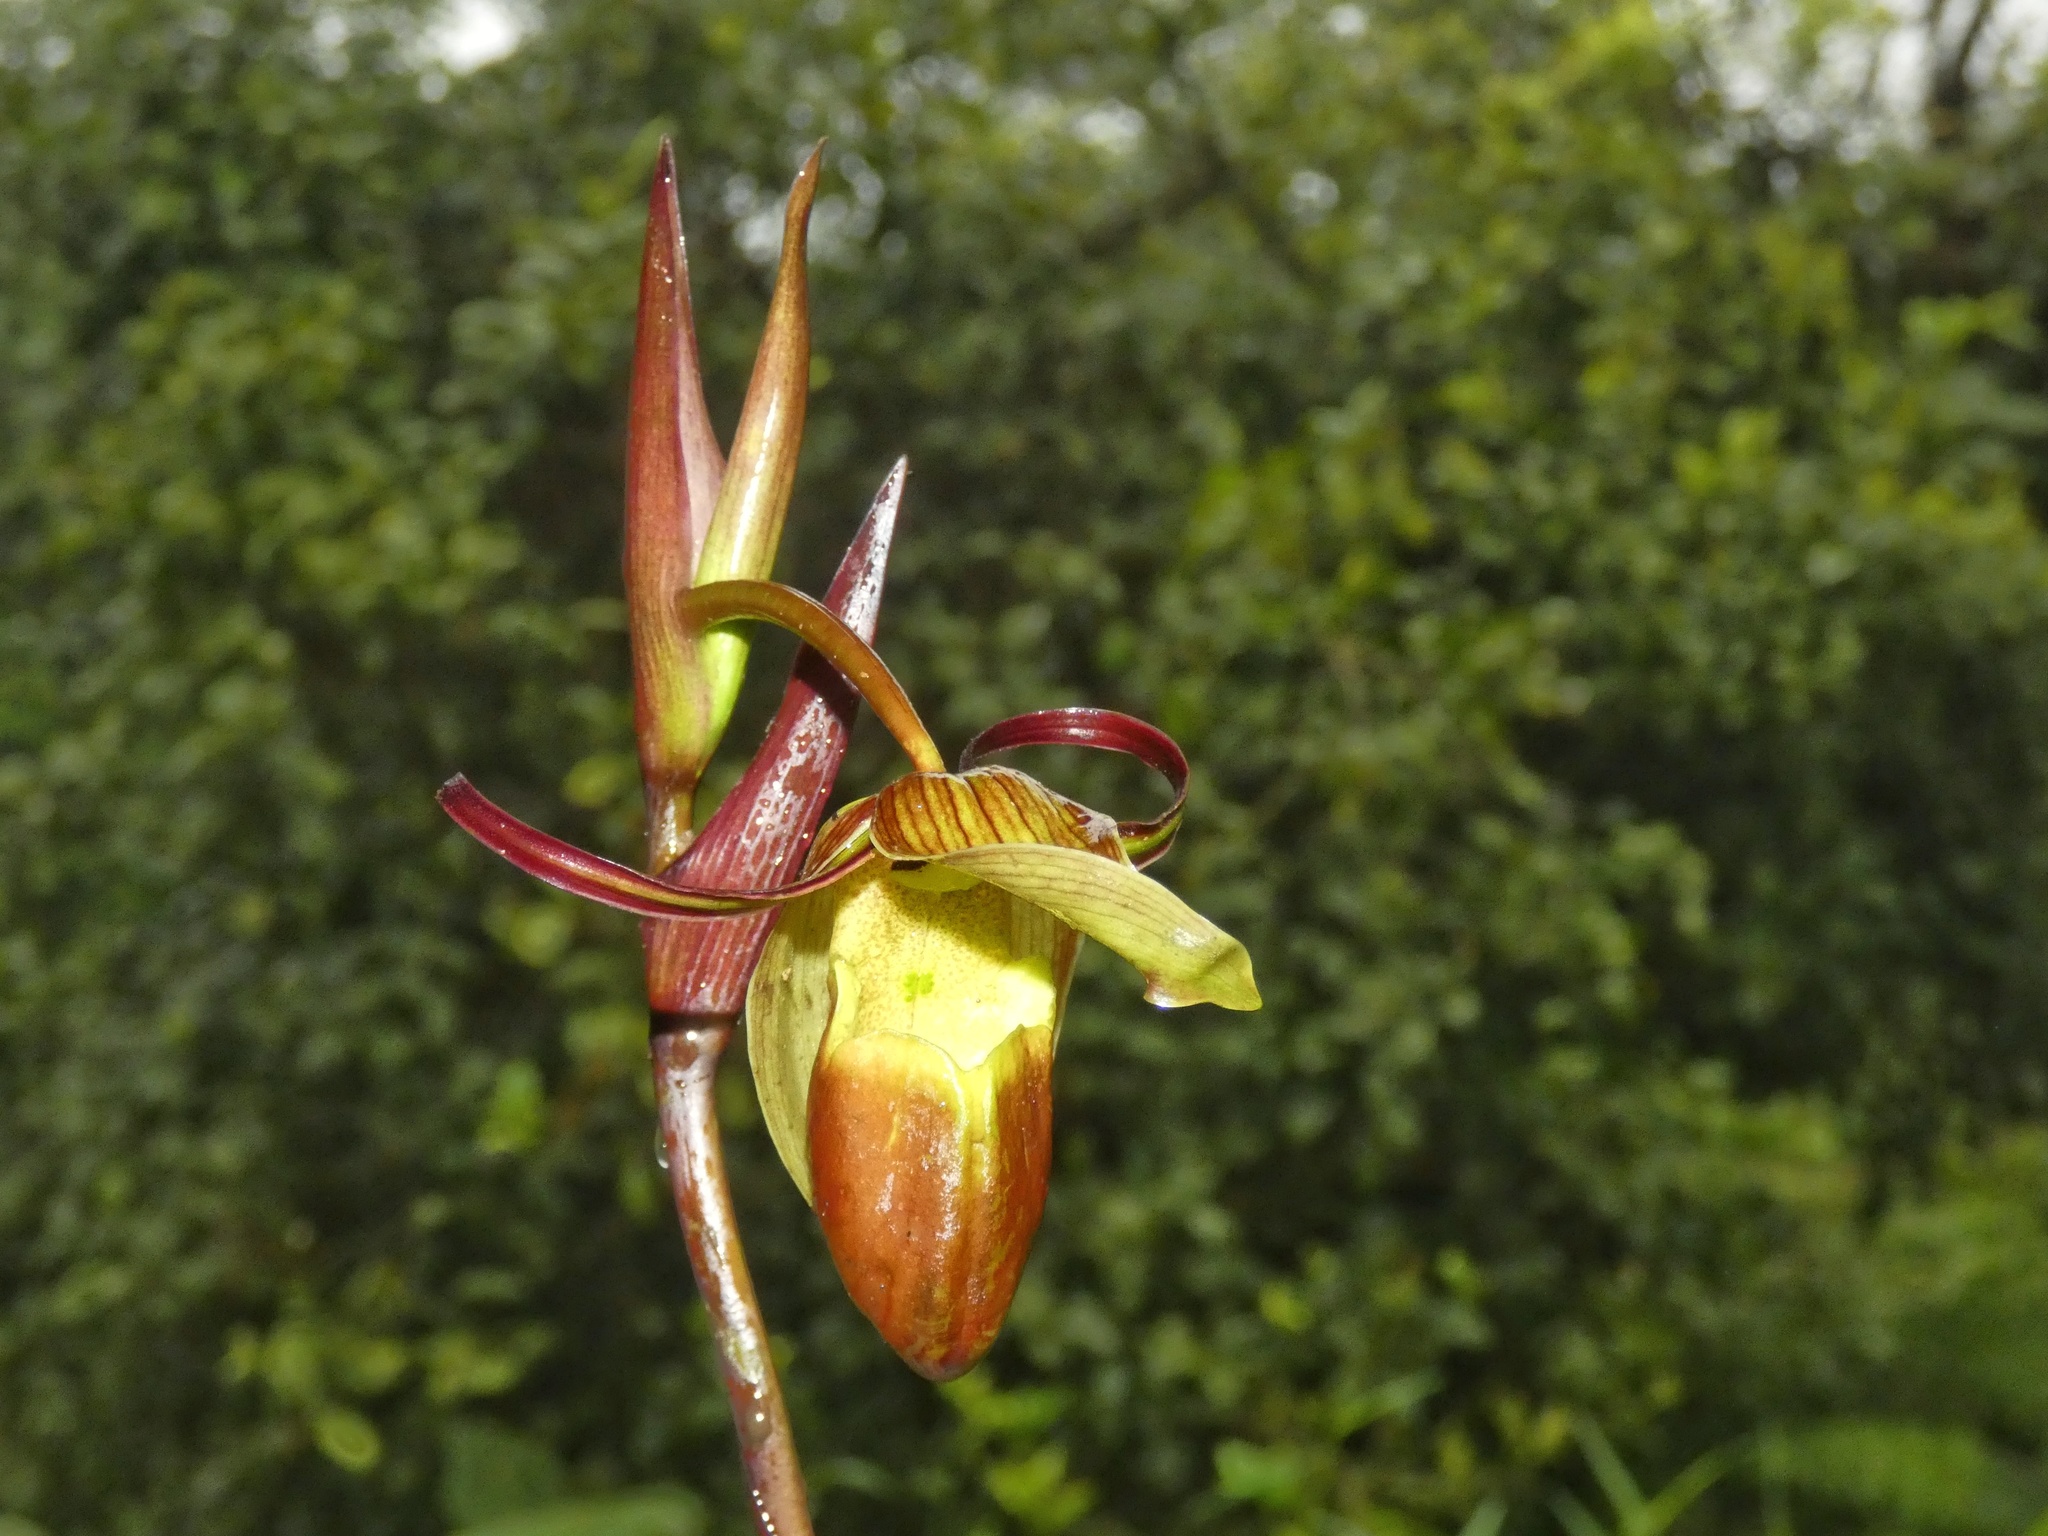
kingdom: Plantae
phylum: Tracheophyta
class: Liliopsida
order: Asparagales
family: Orchidaceae
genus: Phragmipedium
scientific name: Phragmipedium longifolium
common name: Long-leaf phragmipedium
